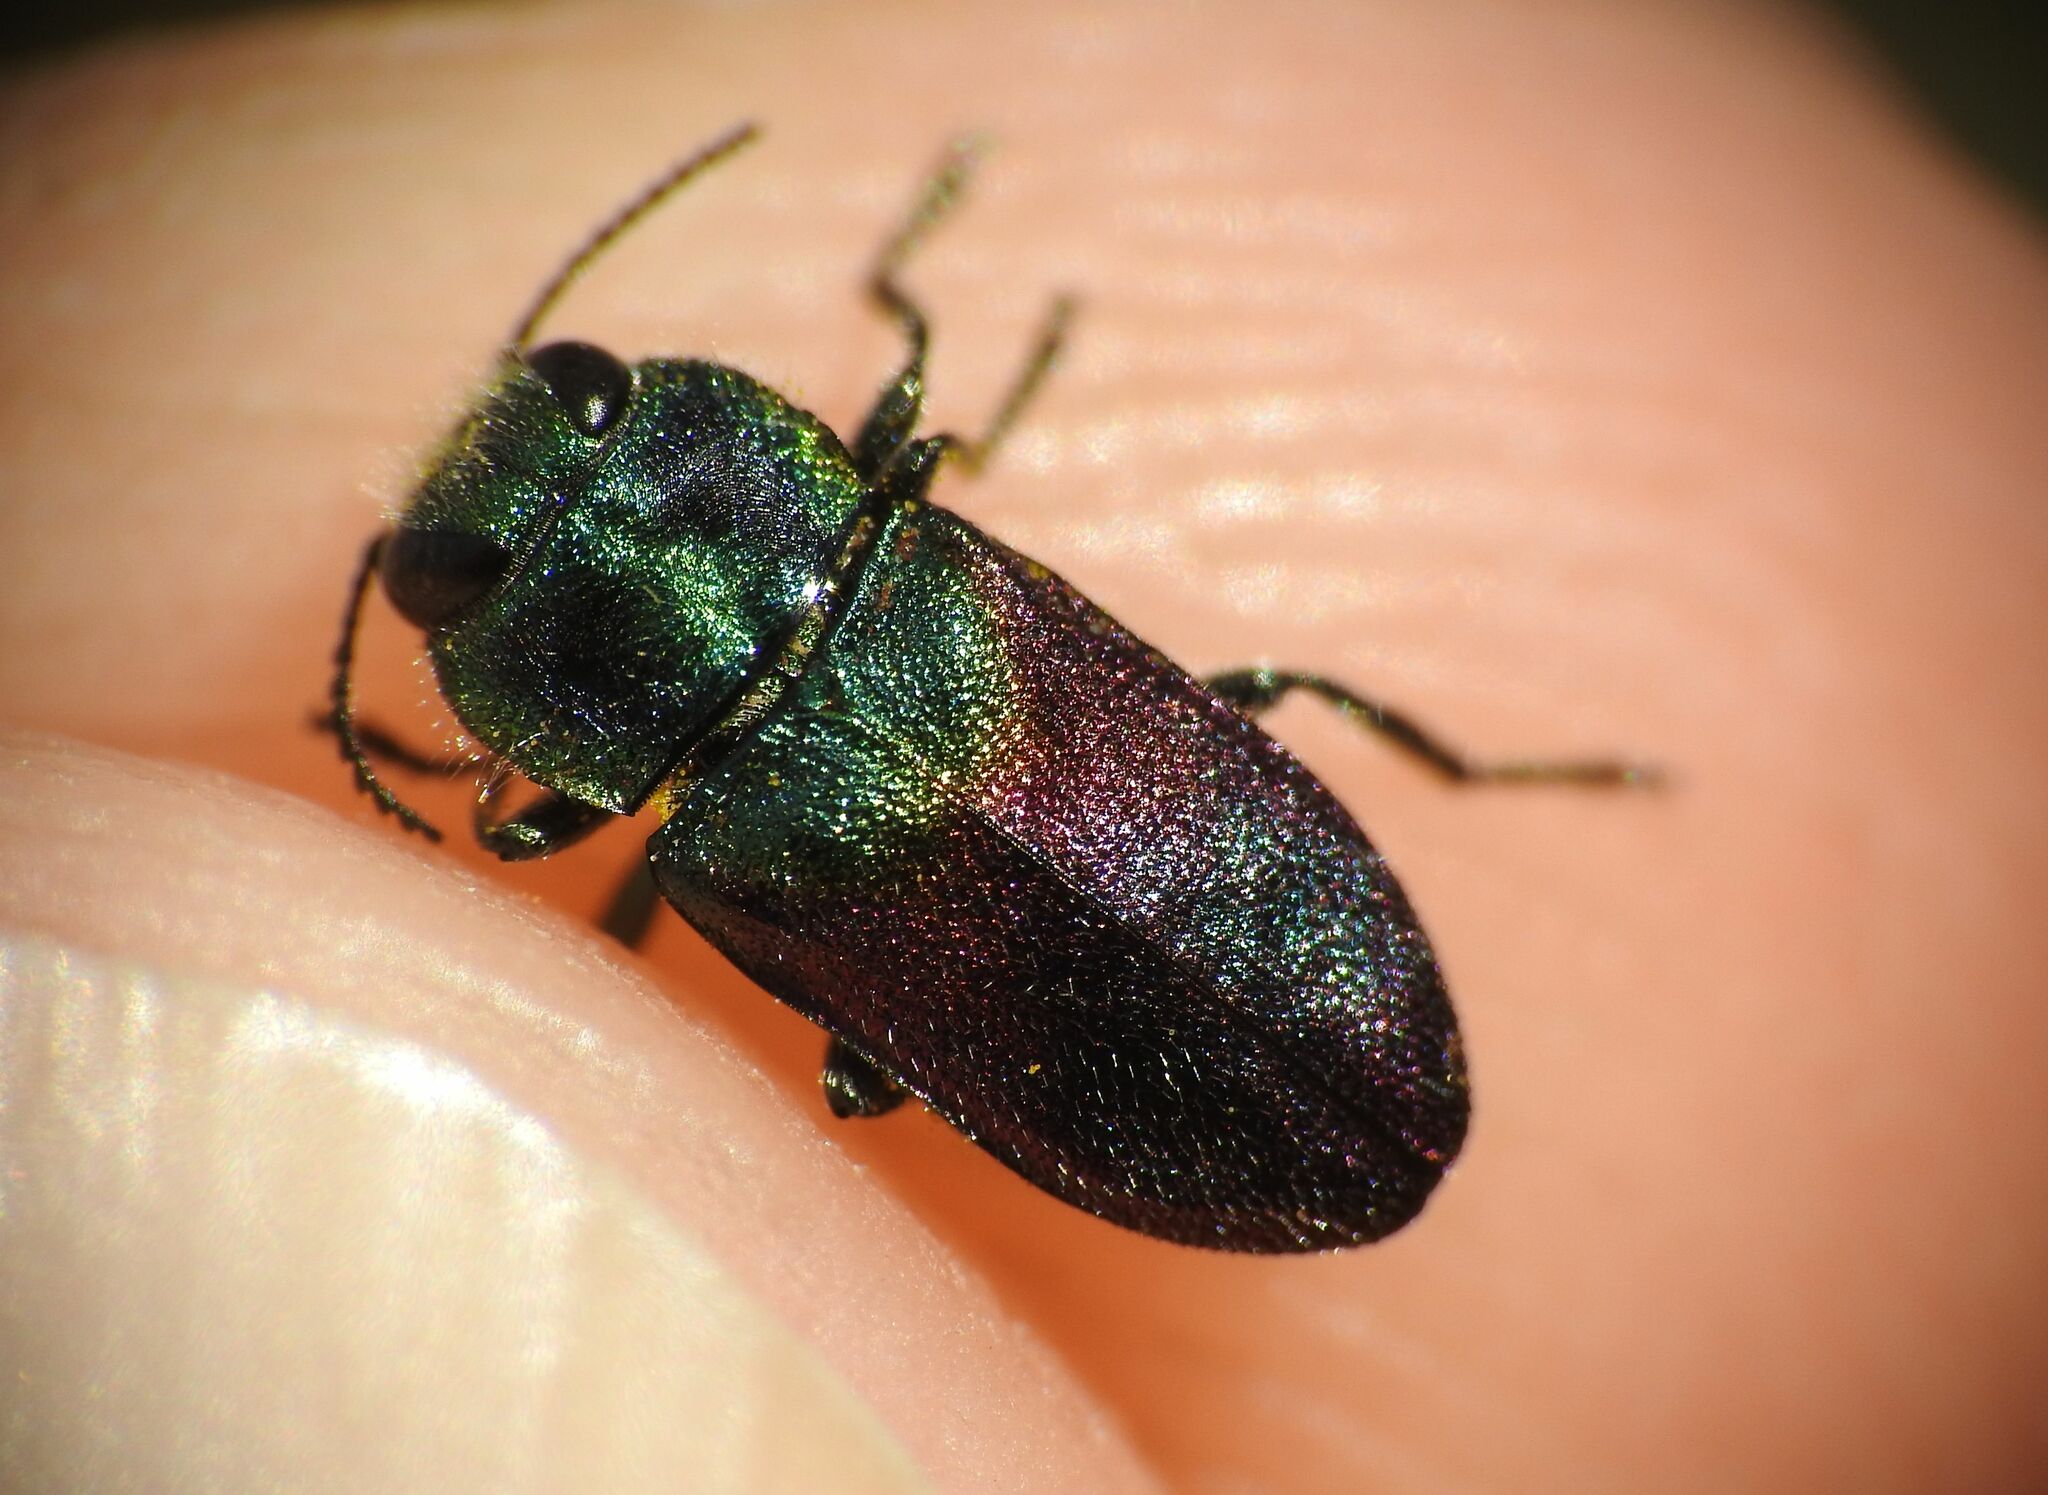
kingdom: Animalia
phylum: Arthropoda
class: Insecta
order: Coleoptera
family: Buprestidae
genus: Anthaxia
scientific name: Anthaxia salicis
